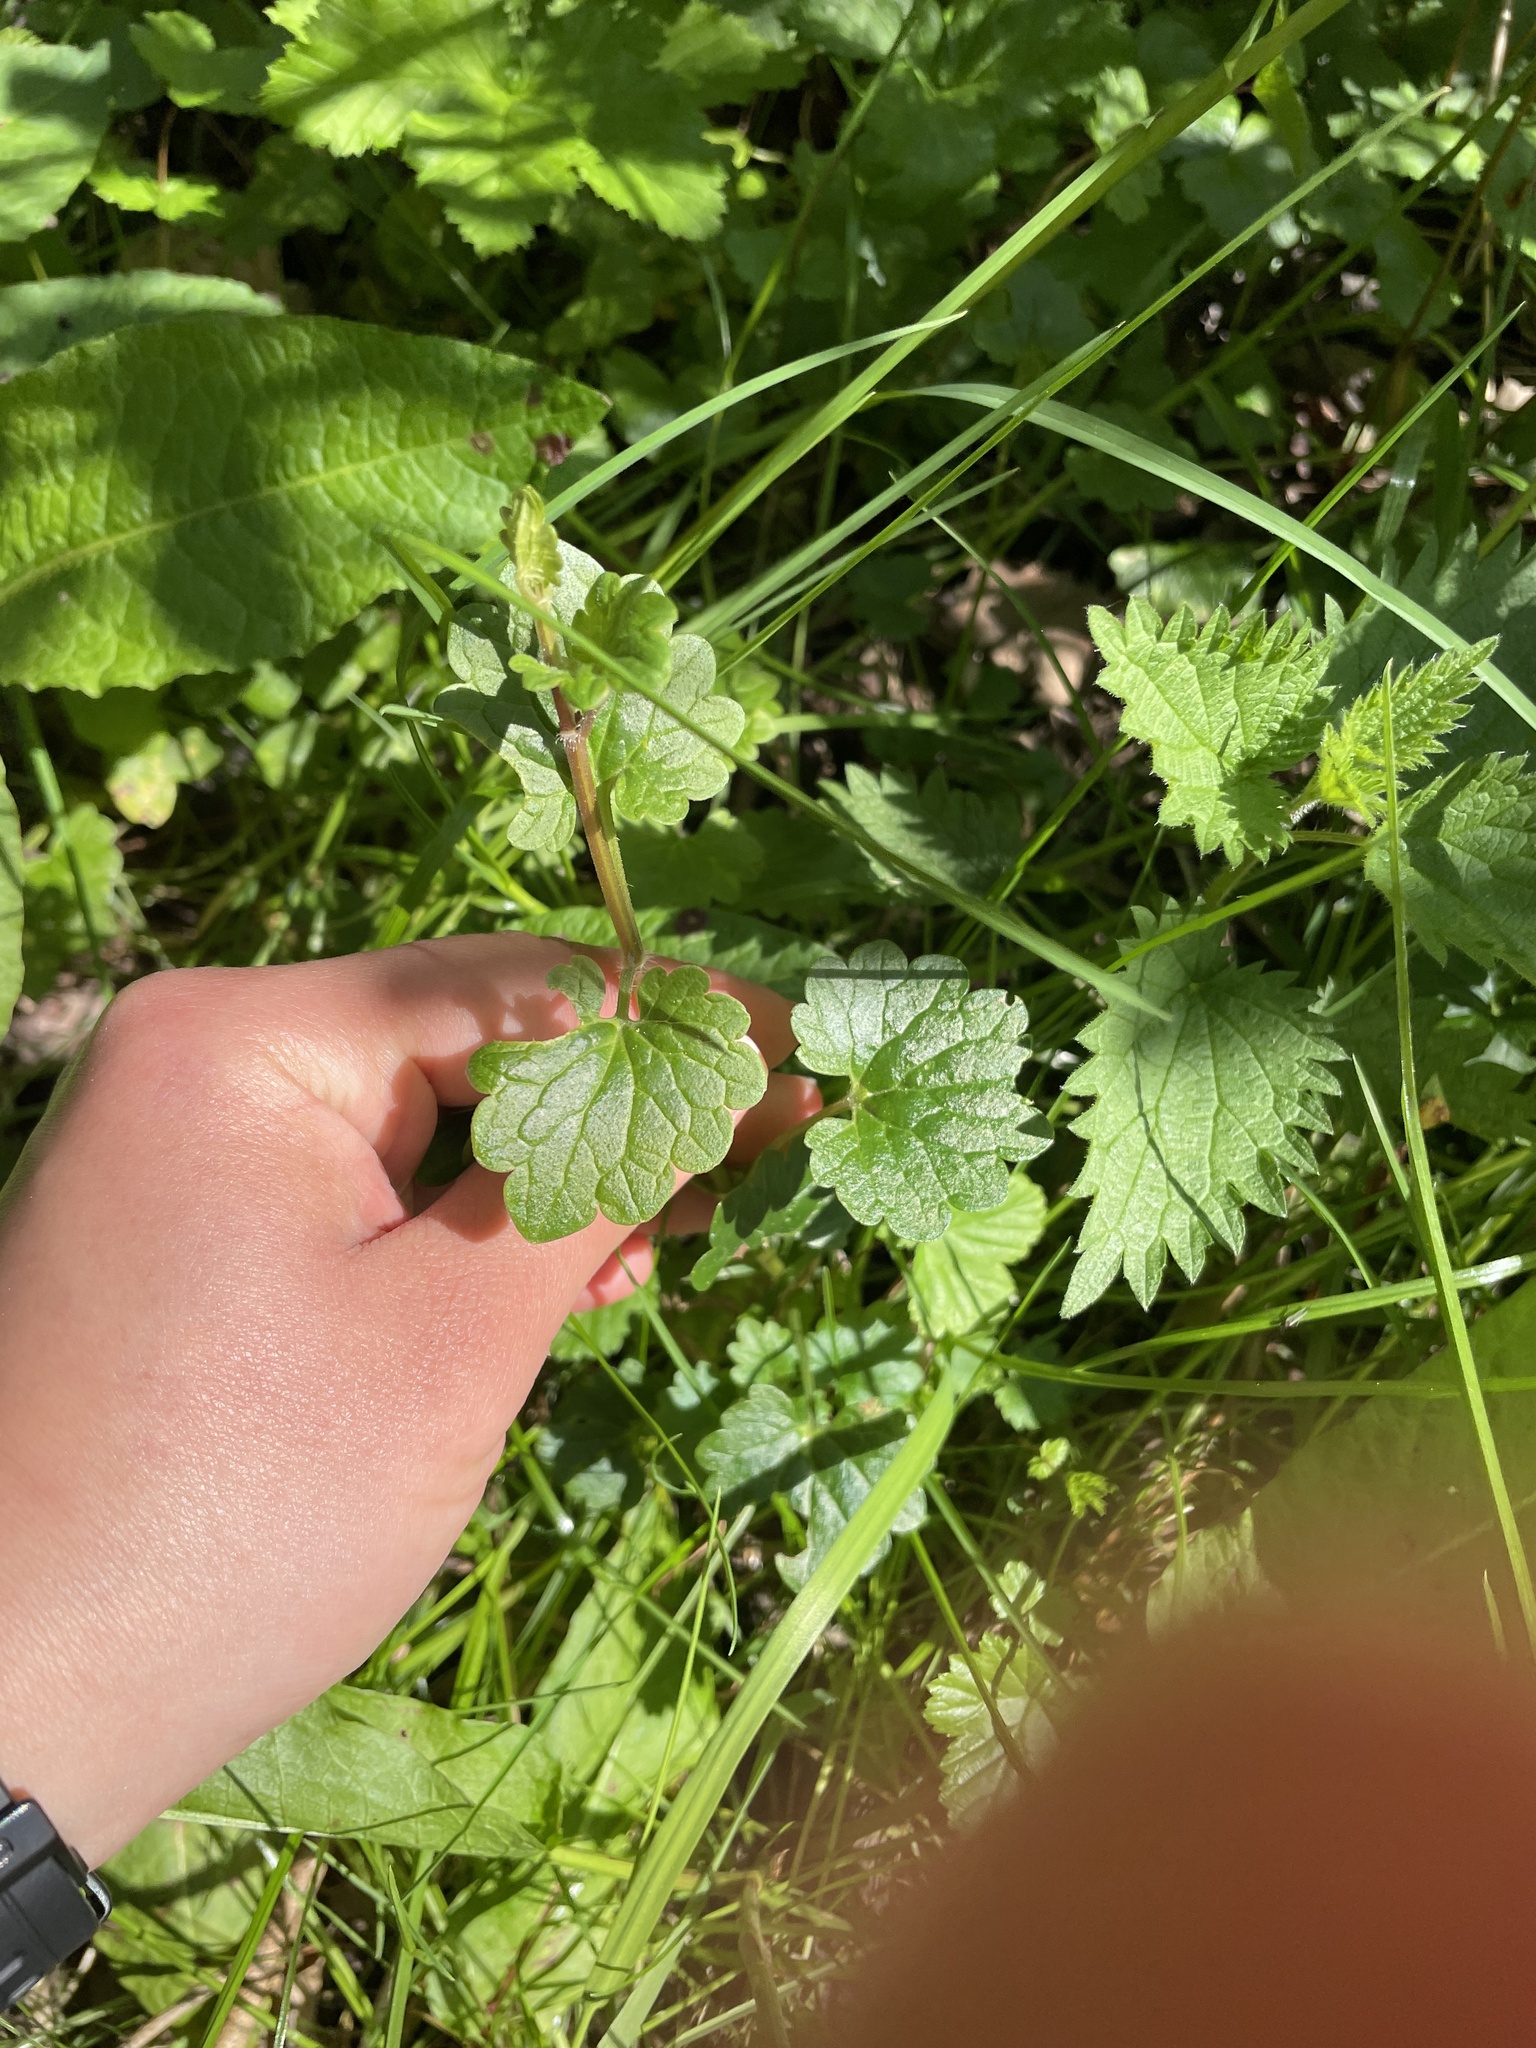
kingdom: Plantae
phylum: Tracheophyta
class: Magnoliopsida
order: Lamiales
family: Lamiaceae
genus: Glechoma
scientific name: Glechoma hederacea
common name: Ground ivy
